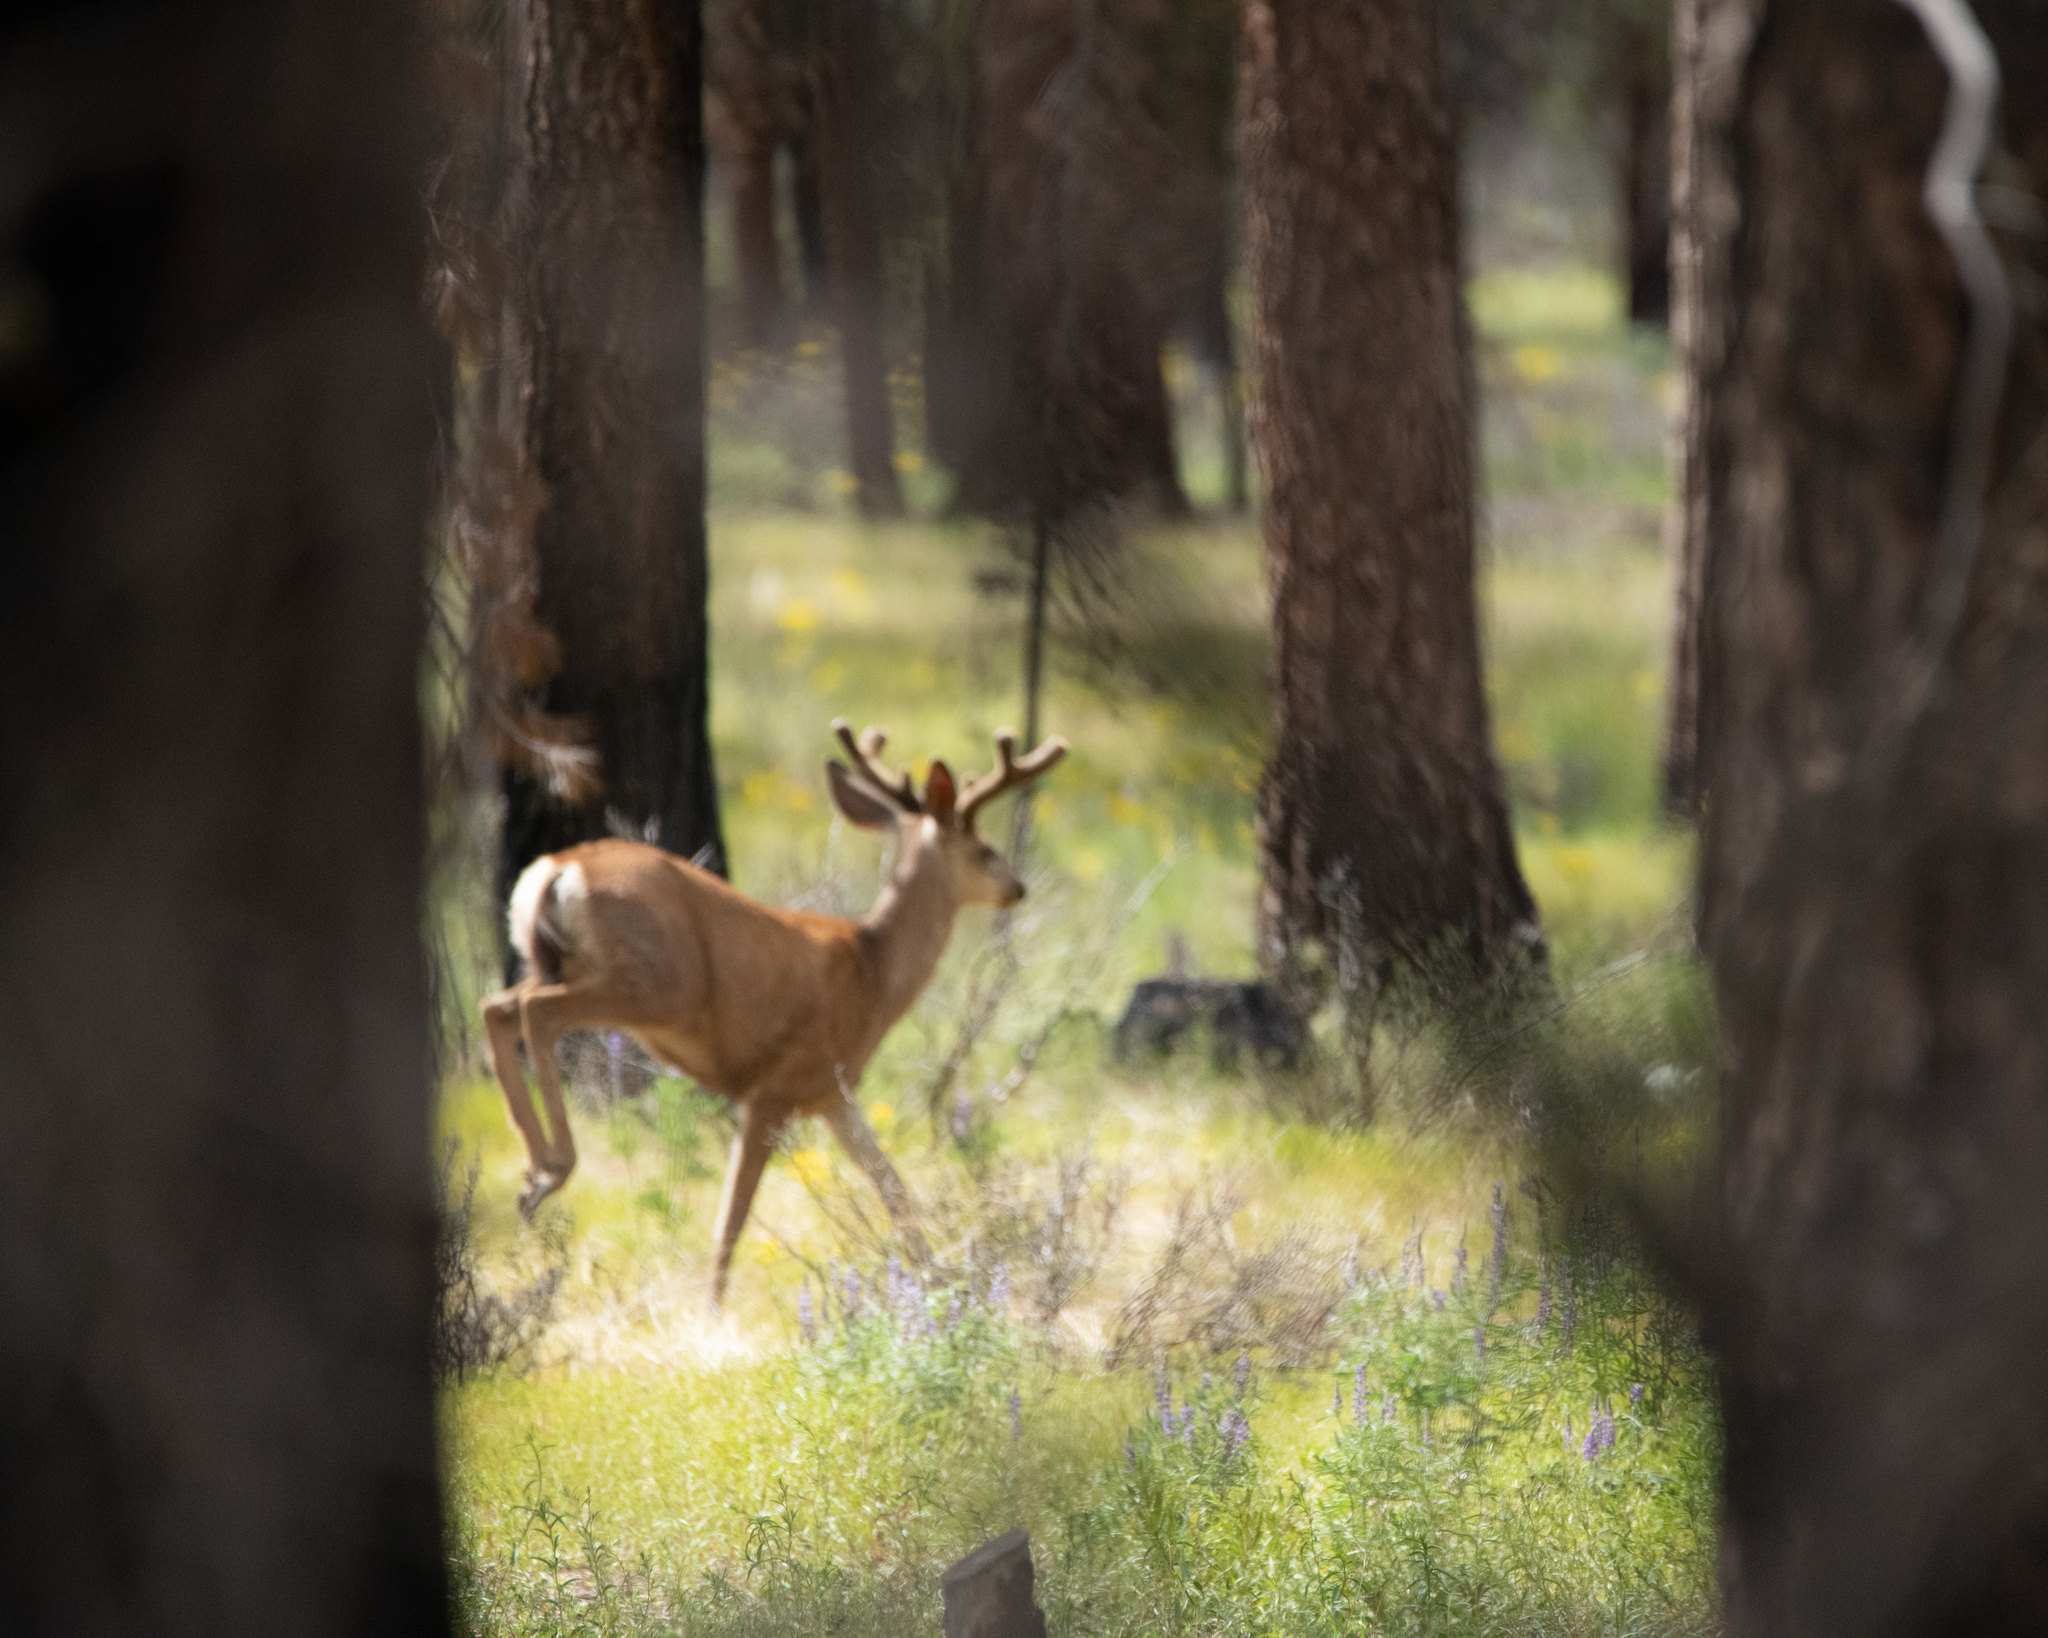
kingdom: Animalia
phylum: Chordata
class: Mammalia
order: Artiodactyla
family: Cervidae
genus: Odocoileus
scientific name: Odocoileus hemionus
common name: Mule deer
